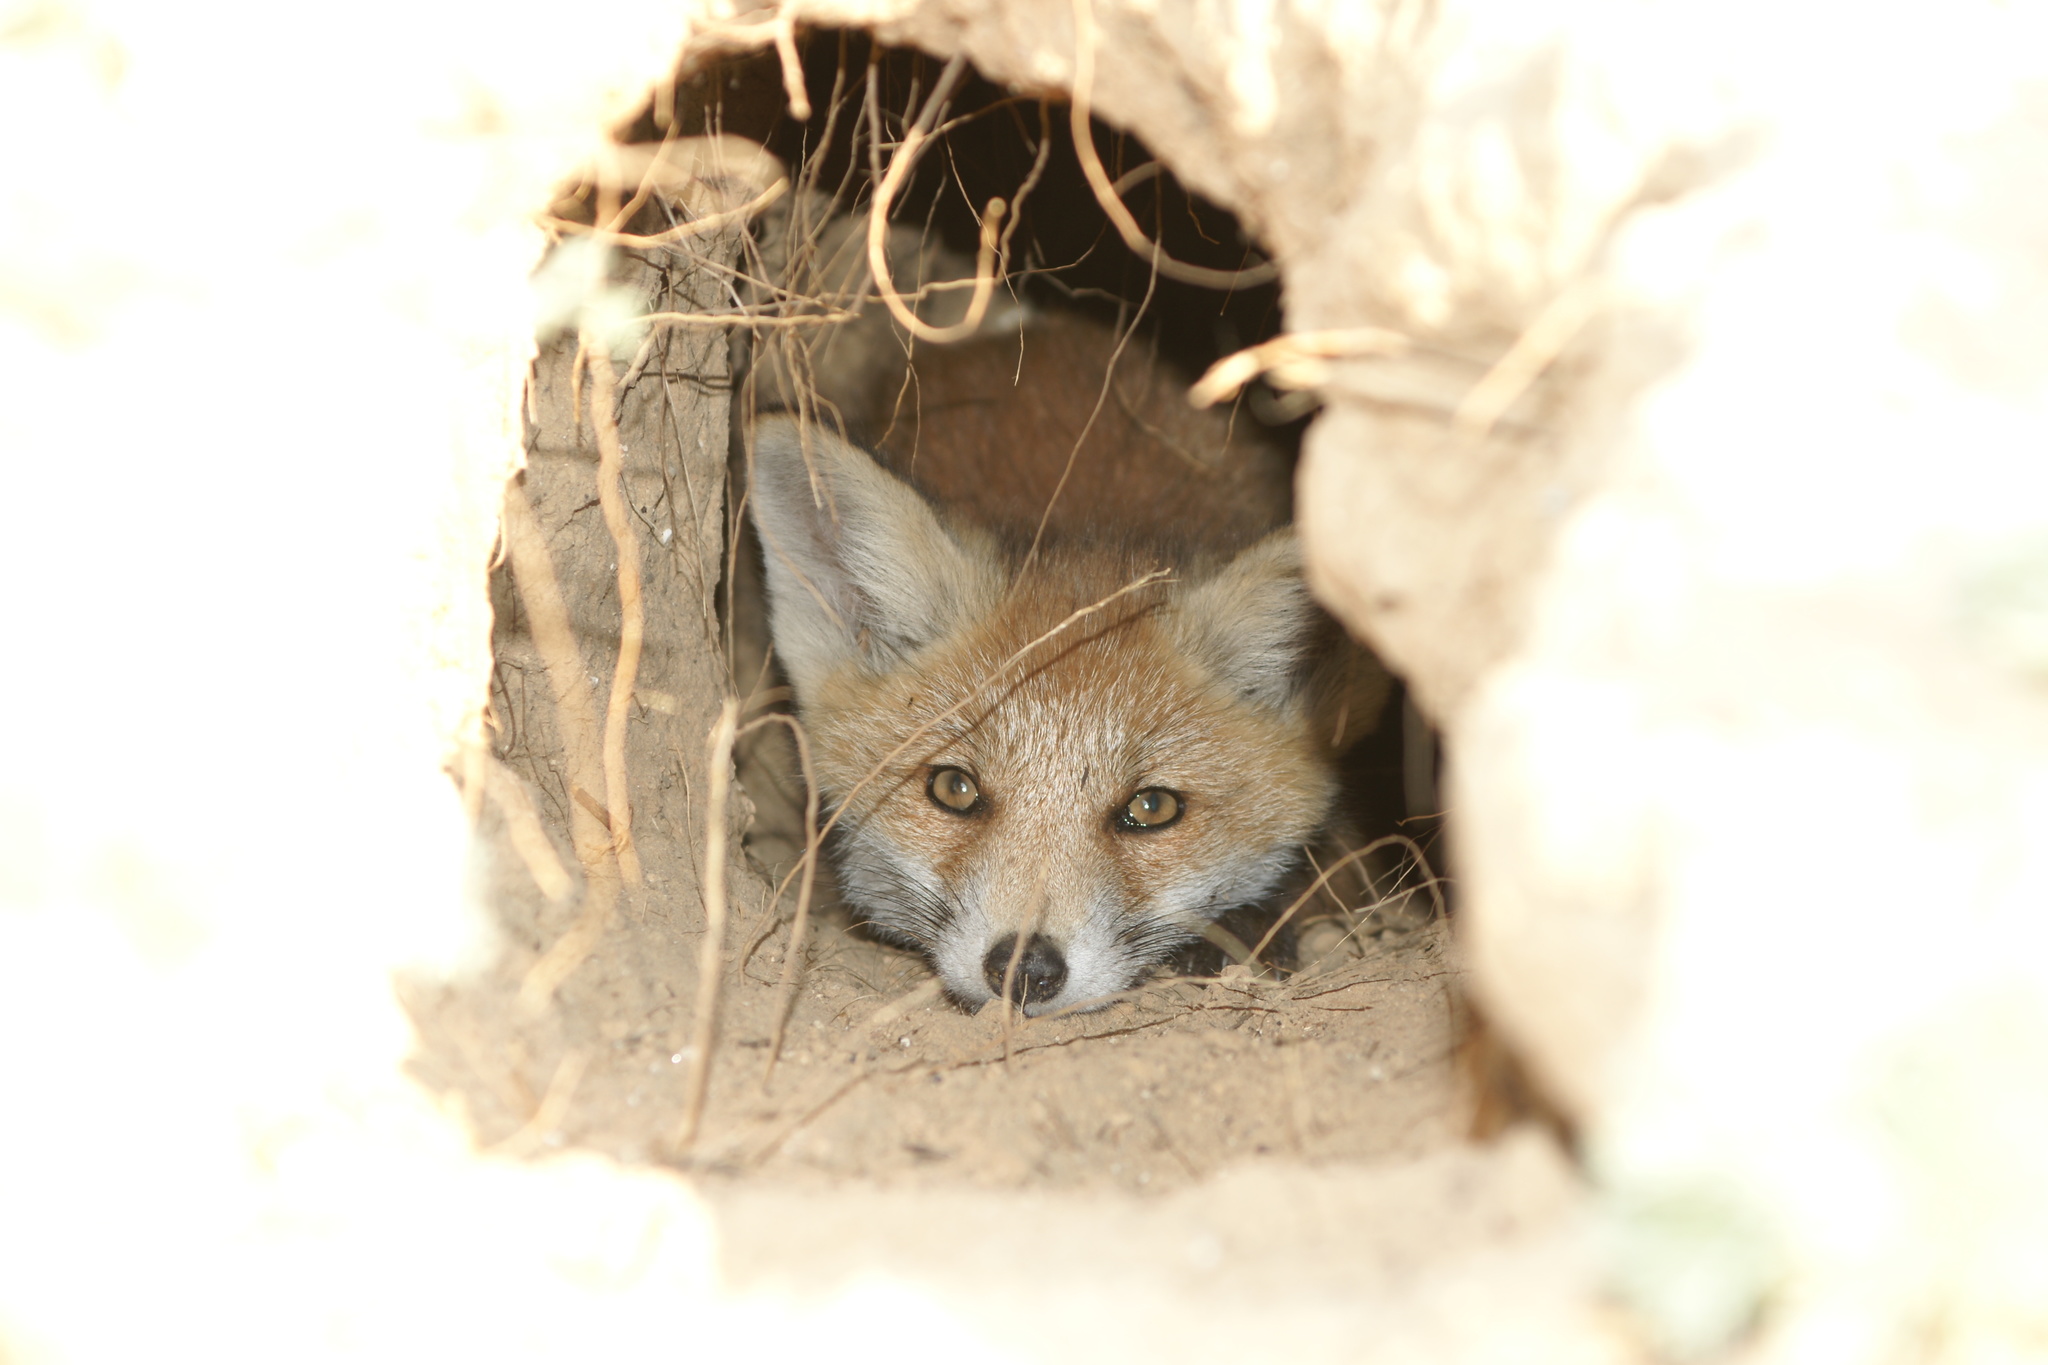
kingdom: Animalia
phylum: Chordata
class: Mammalia
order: Carnivora
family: Canidae
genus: Vulpes
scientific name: Vulpes vulpes
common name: Red fox
